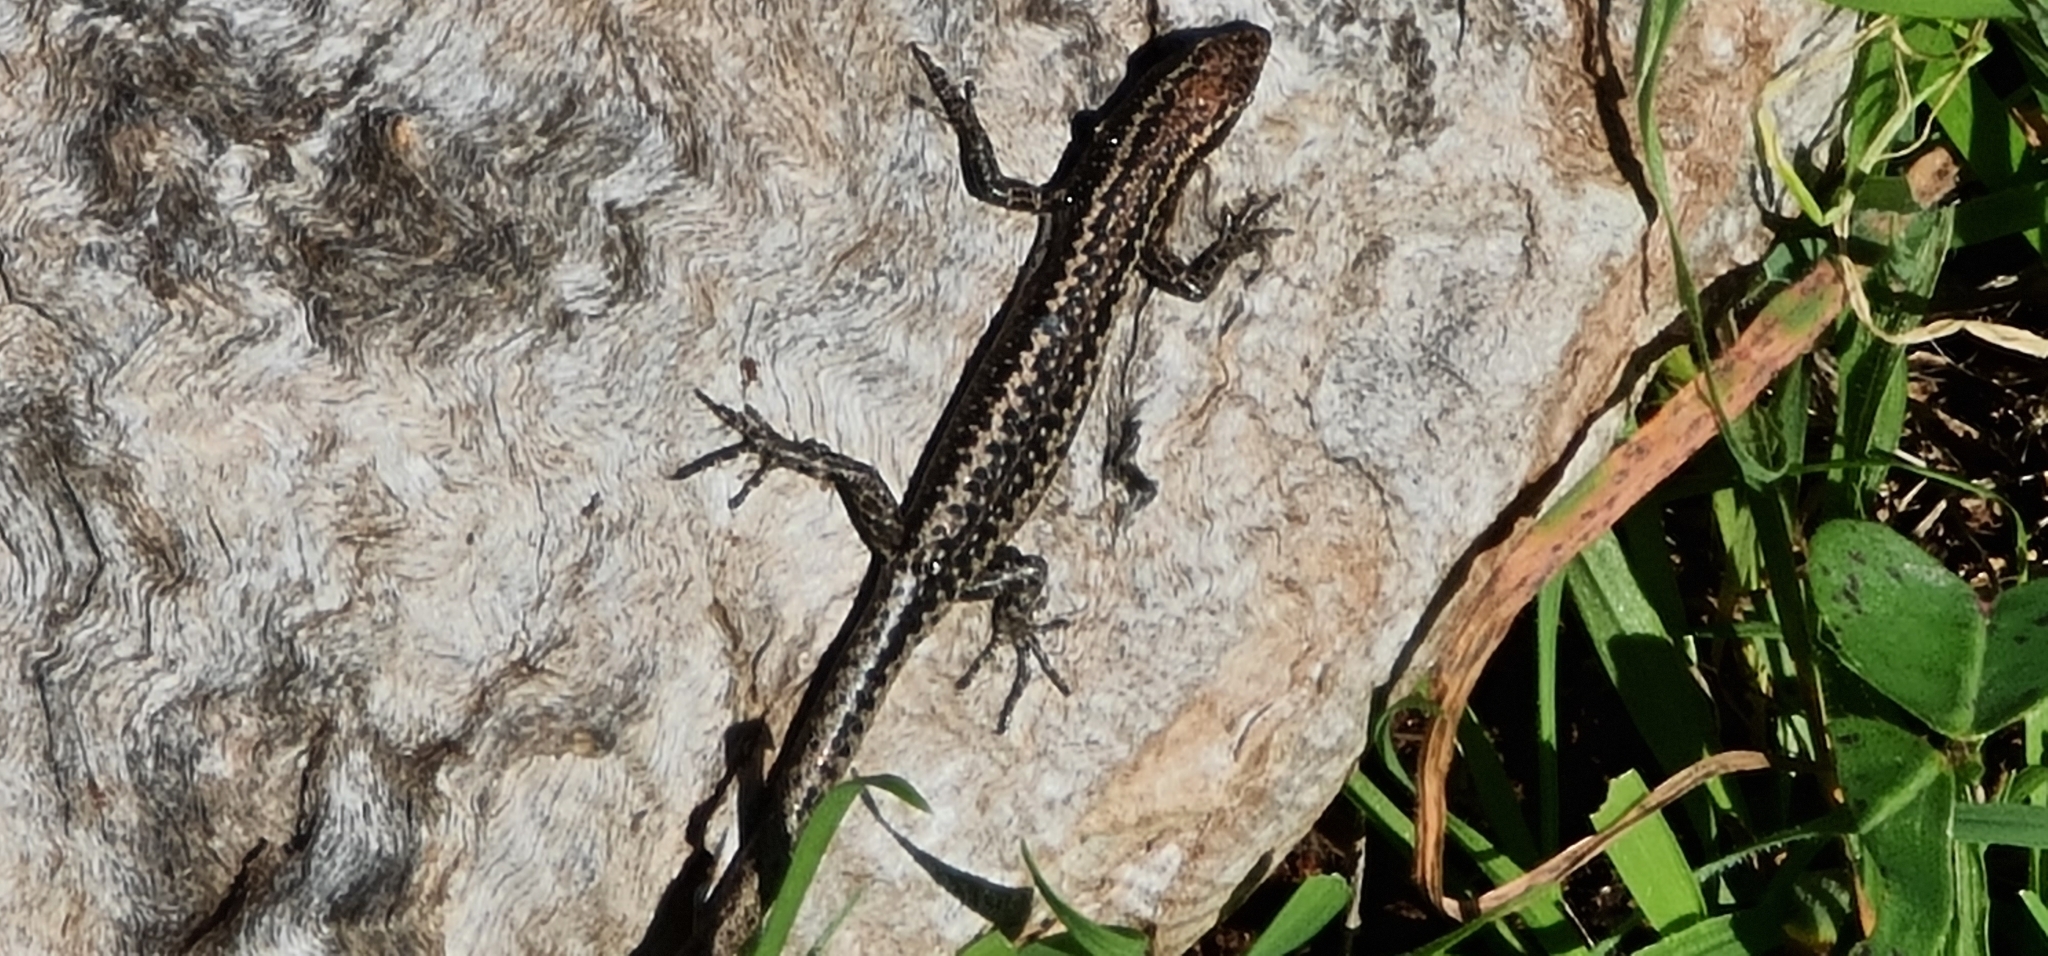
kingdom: Animalia
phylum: Chordata
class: Squamata
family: Scincidae
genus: Cryptoblepharus
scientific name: Cryptoblepharus pannosus
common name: Ragged snake-eyed skink
